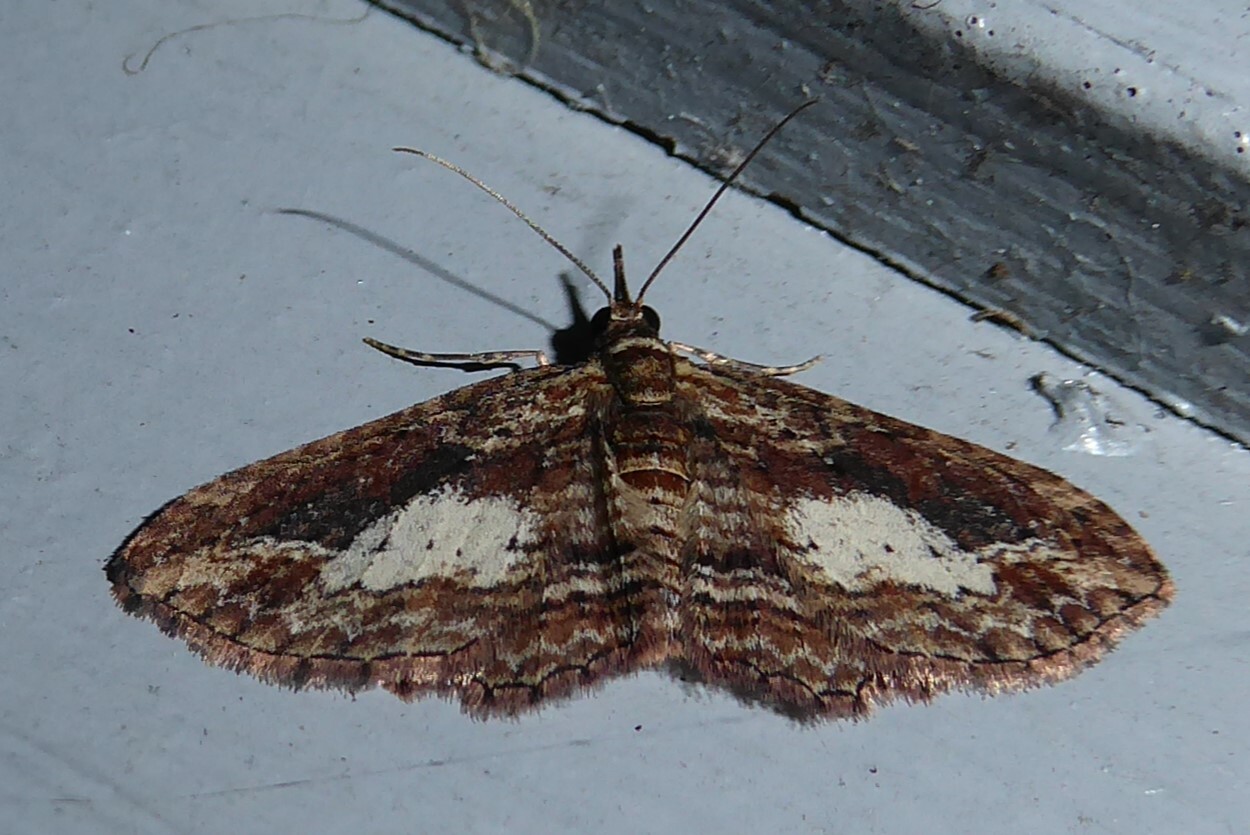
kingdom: Animalia
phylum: Arthropoda
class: Insecta
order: Lepidoptera
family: Geometridae
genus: Chloroclystis
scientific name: Chloroclystis filata
